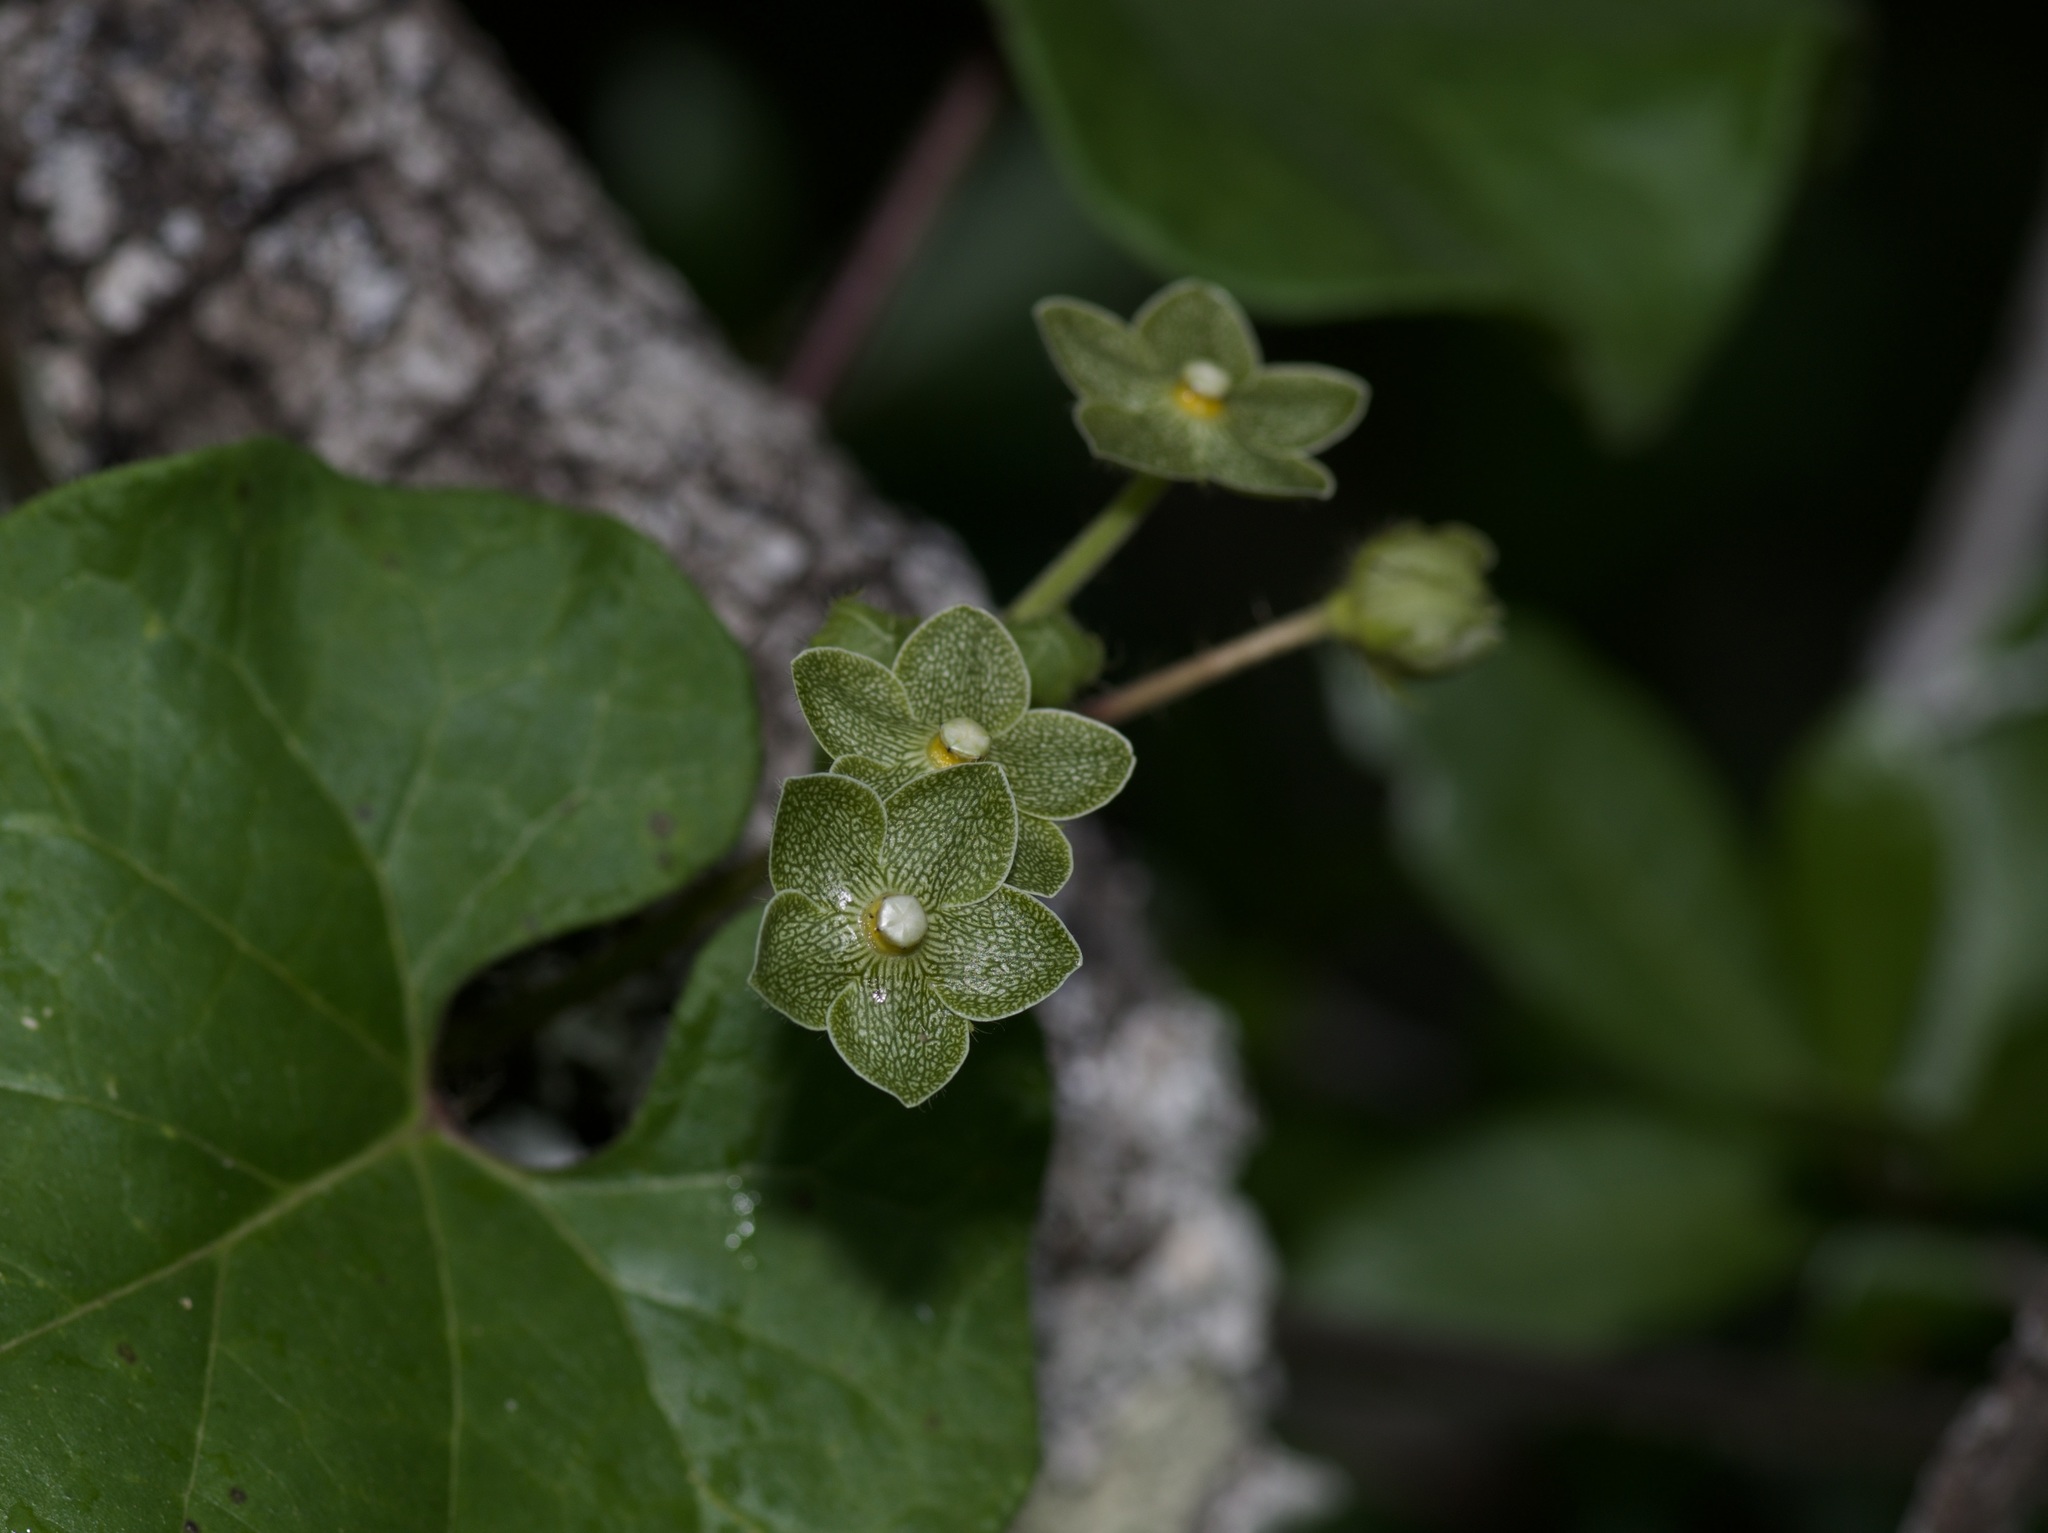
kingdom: Plantae
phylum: Tracheophyta
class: Magnoliopsida
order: Gentianales
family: Apocynaceae
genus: Dictyanthus
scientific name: Dictyanthus reticulatus
